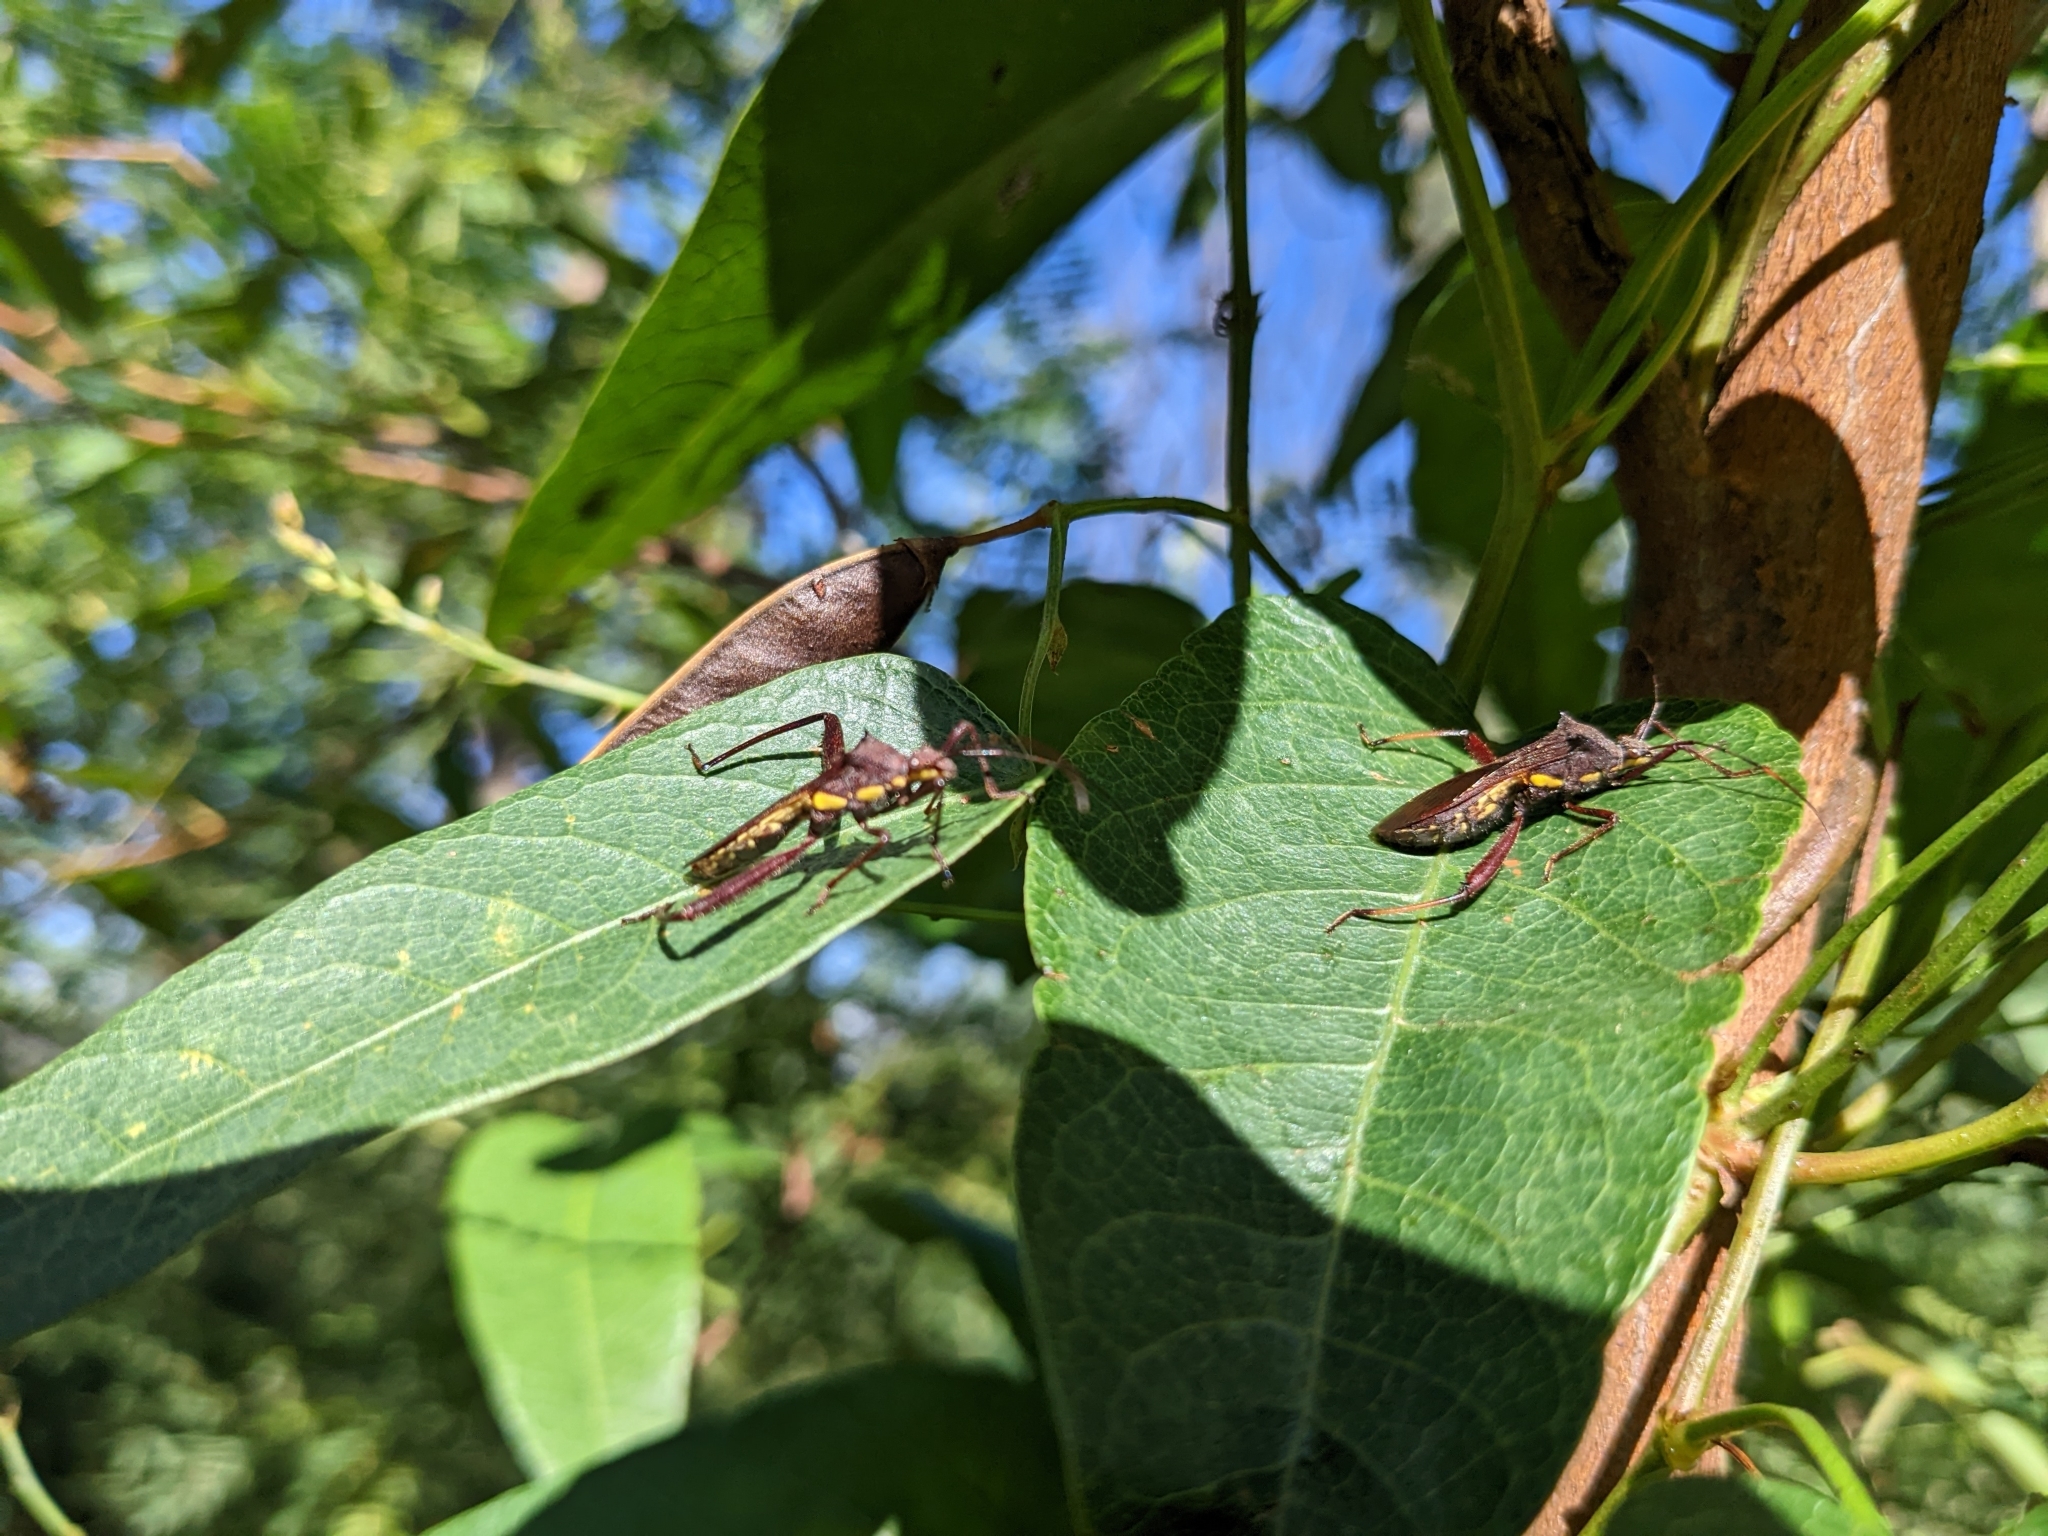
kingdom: Animalia
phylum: Arthropoda
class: Insecta
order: Hemiptera
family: Alydidae
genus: Riptortus
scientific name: Riptortus serripes
